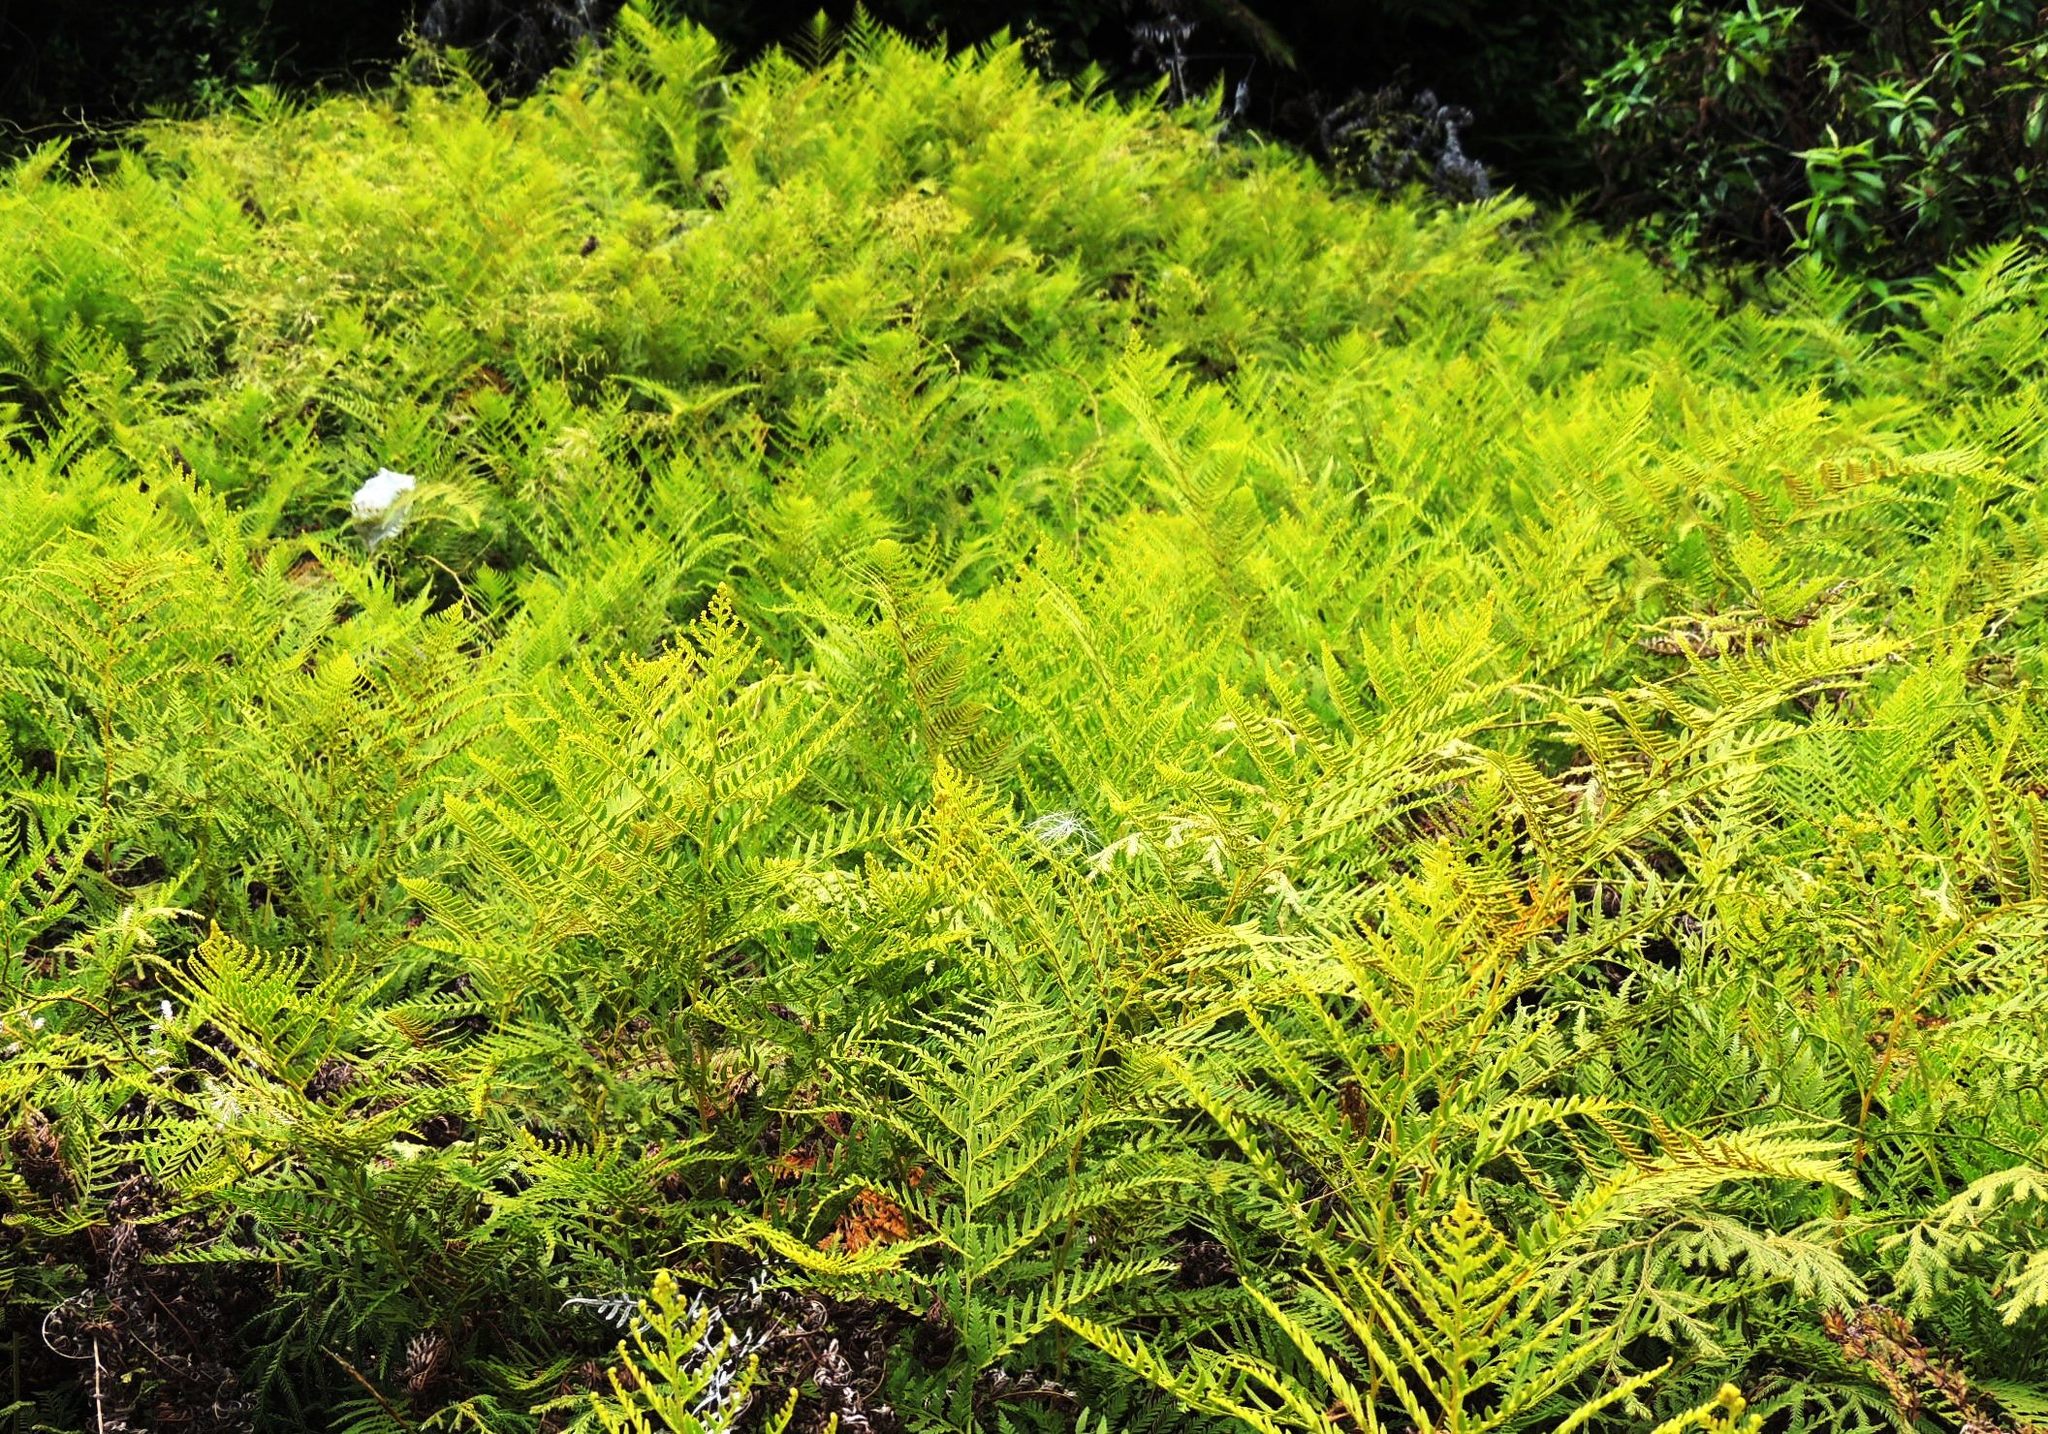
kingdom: Plantae
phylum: Tracheophyta
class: Polypodiopsida
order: Polypodiales
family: Dennstaedtiaceae
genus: Paesia
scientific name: Paesia scaberula
